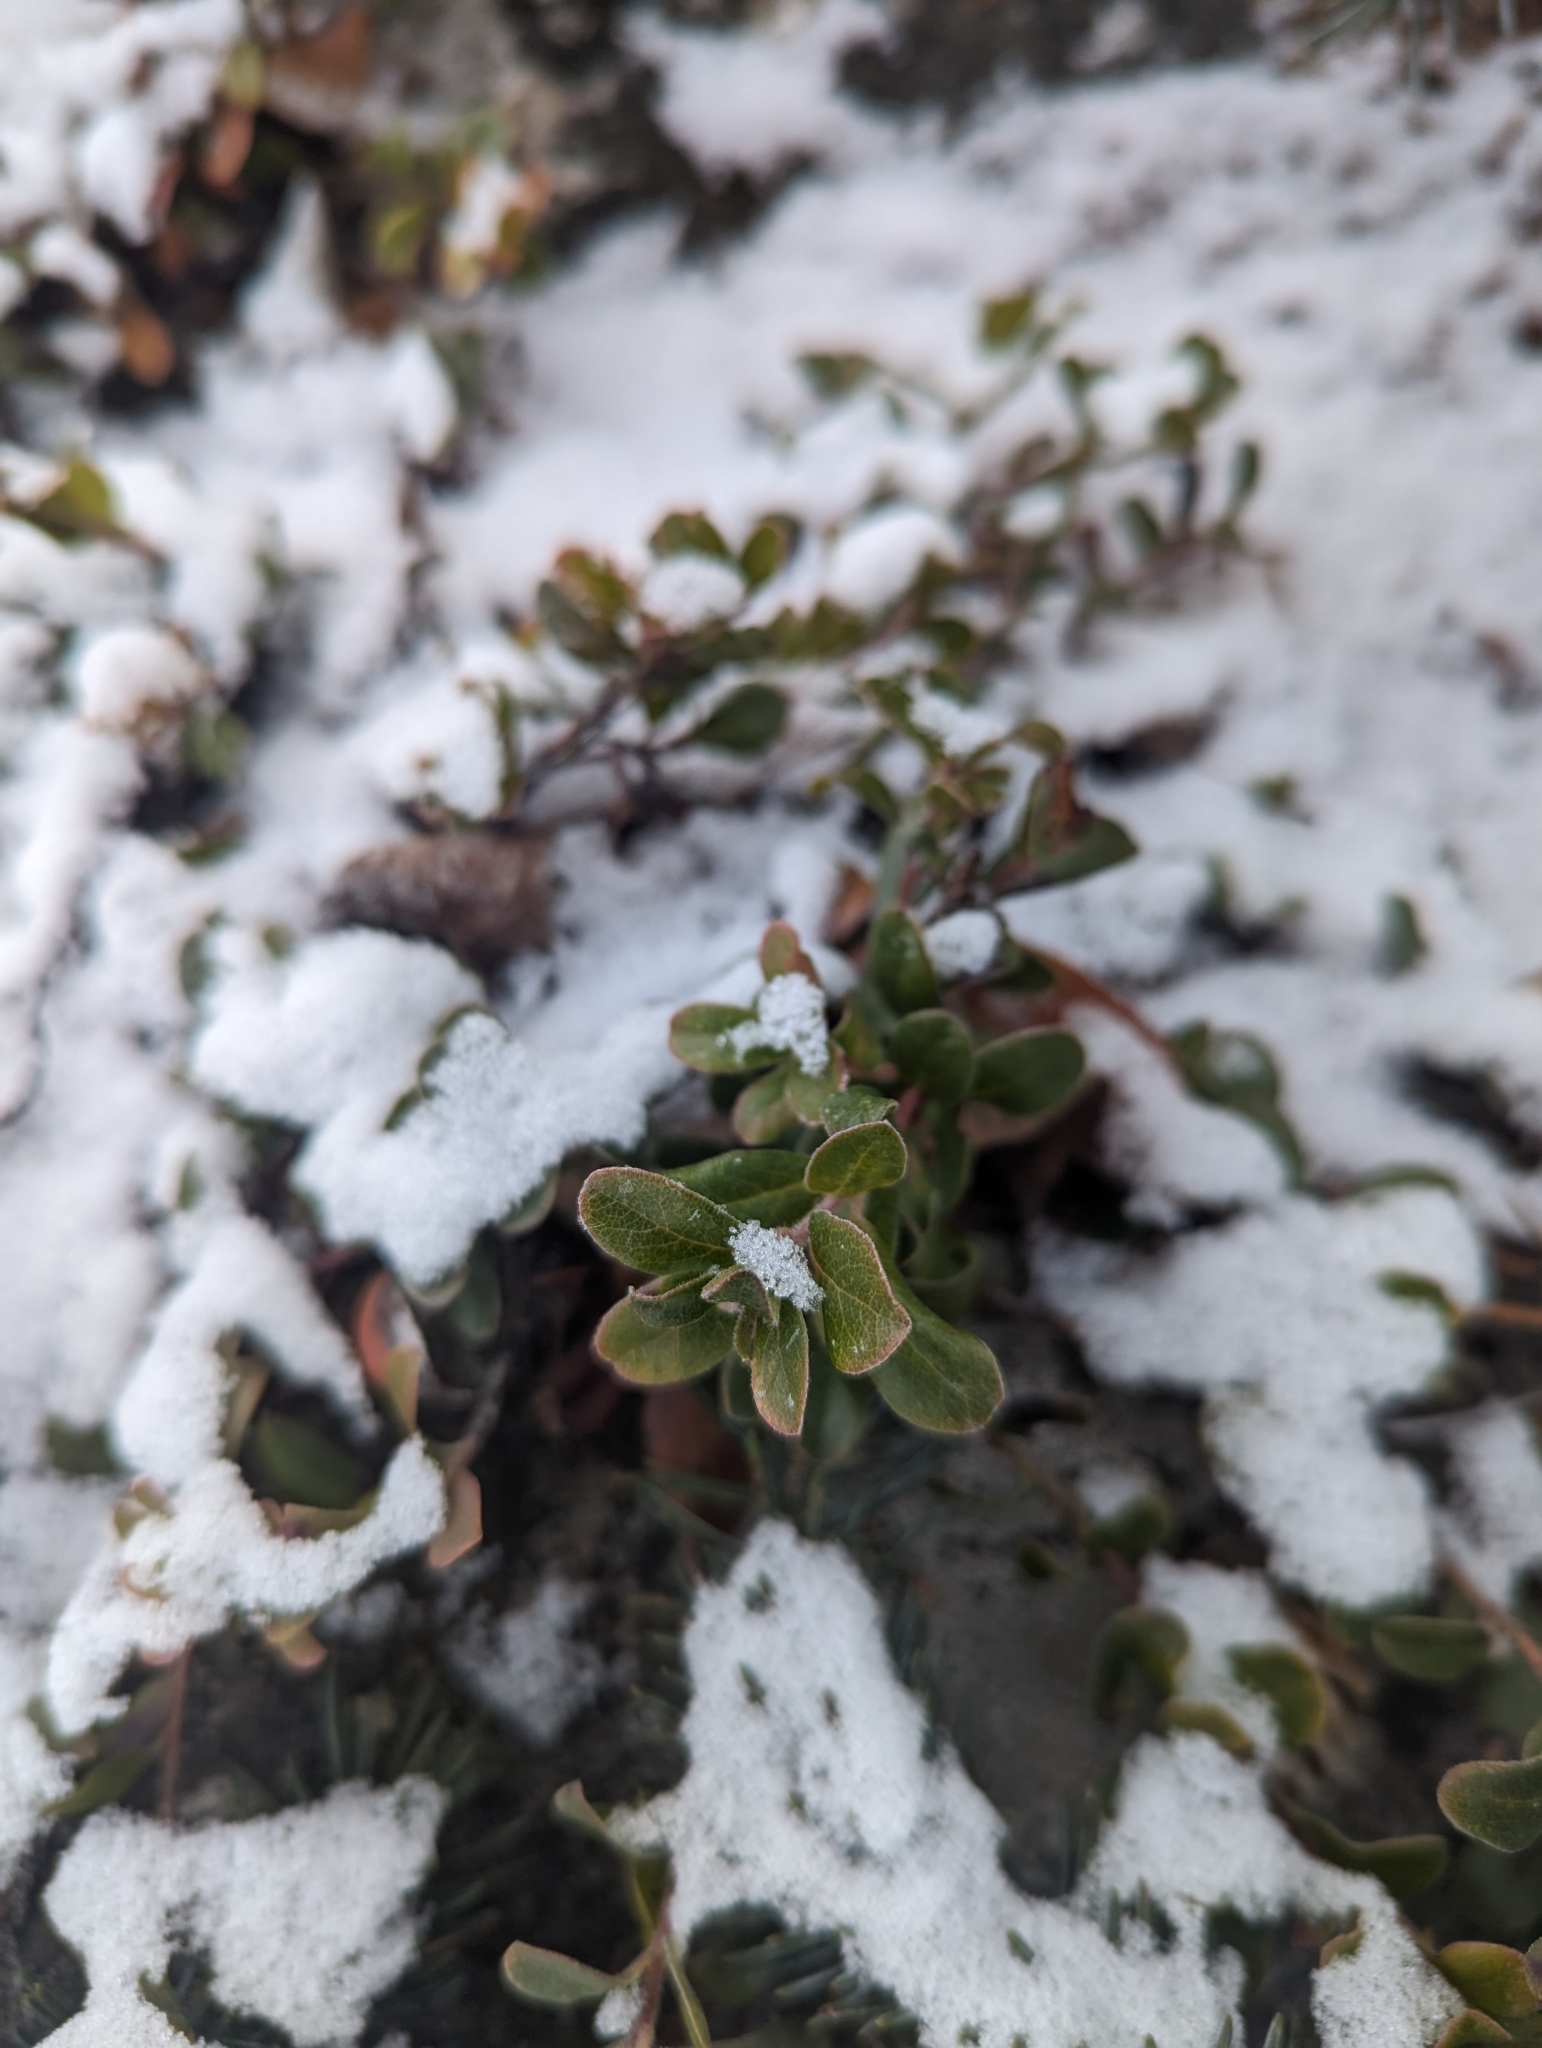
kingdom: Plantae
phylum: Tracheophyta
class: Magnoliopsida
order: Ericales
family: Ericaceae
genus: Arctostaphylos
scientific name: Arctostaphylos uva-ursi
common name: Bearberry
